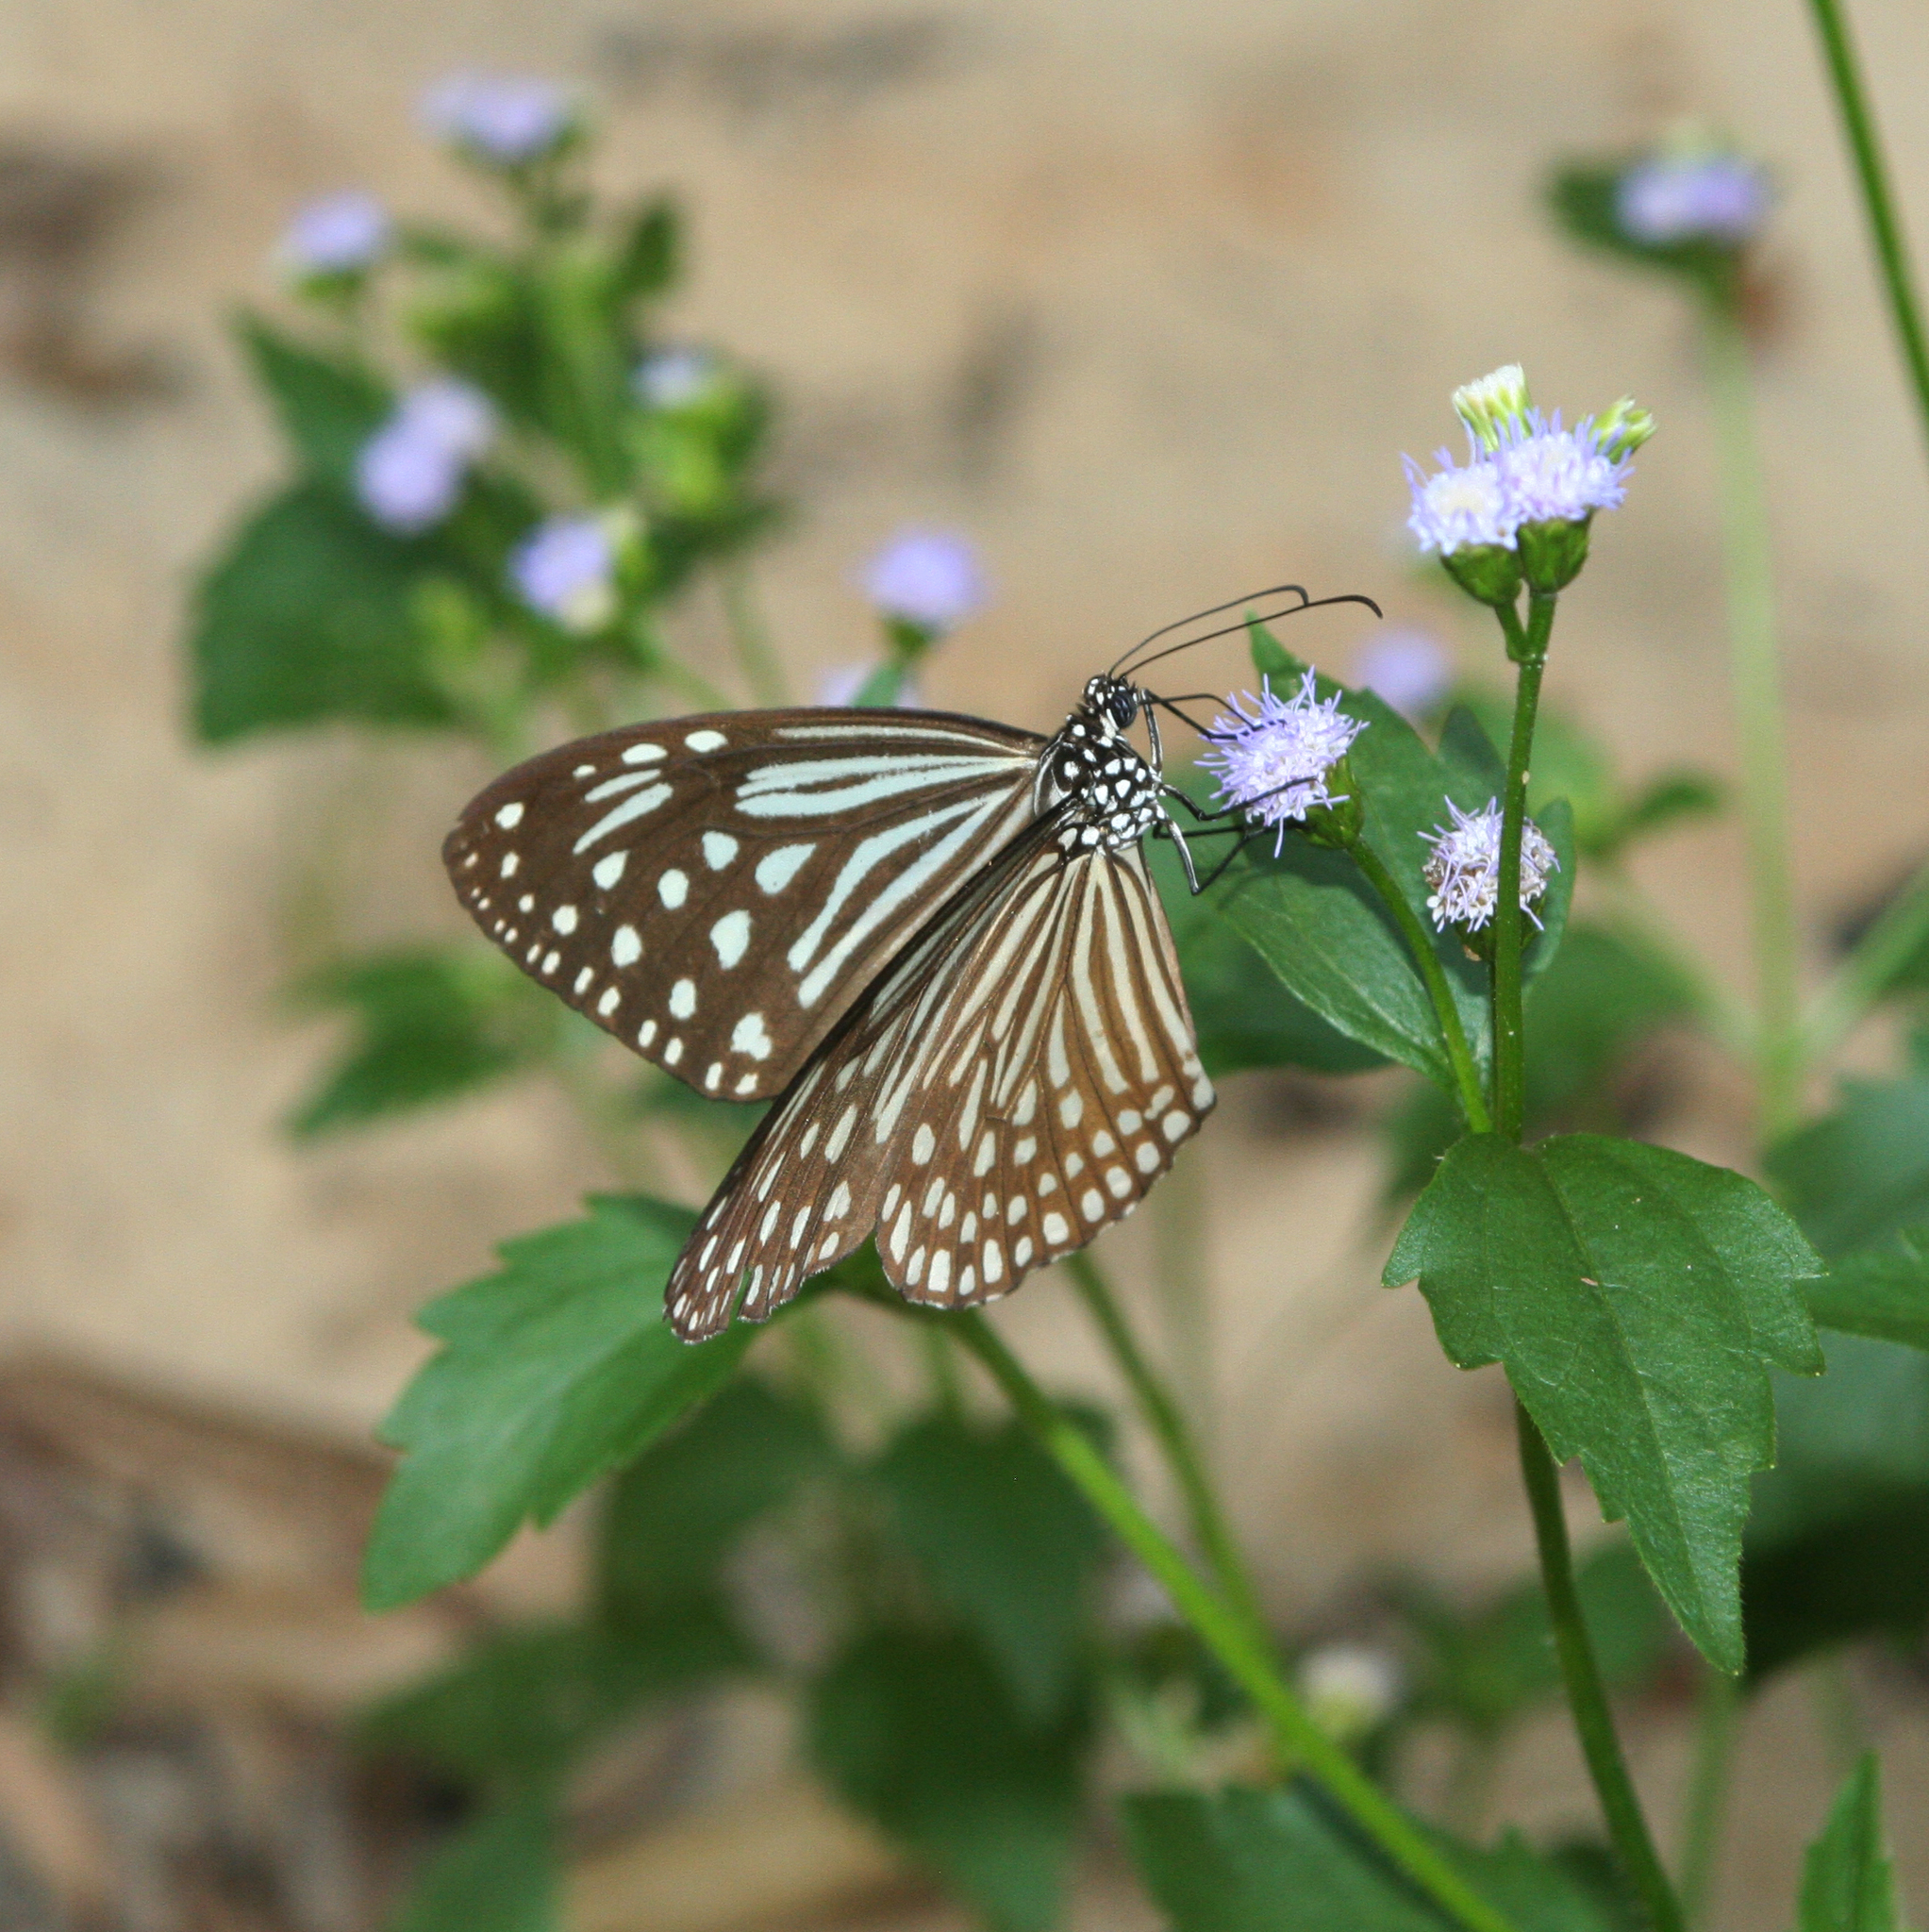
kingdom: Animalia
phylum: Arthropoda
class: Insecta
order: Lepidoptera
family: Nymphalidae
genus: Parantica
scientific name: Parantica agleoides
